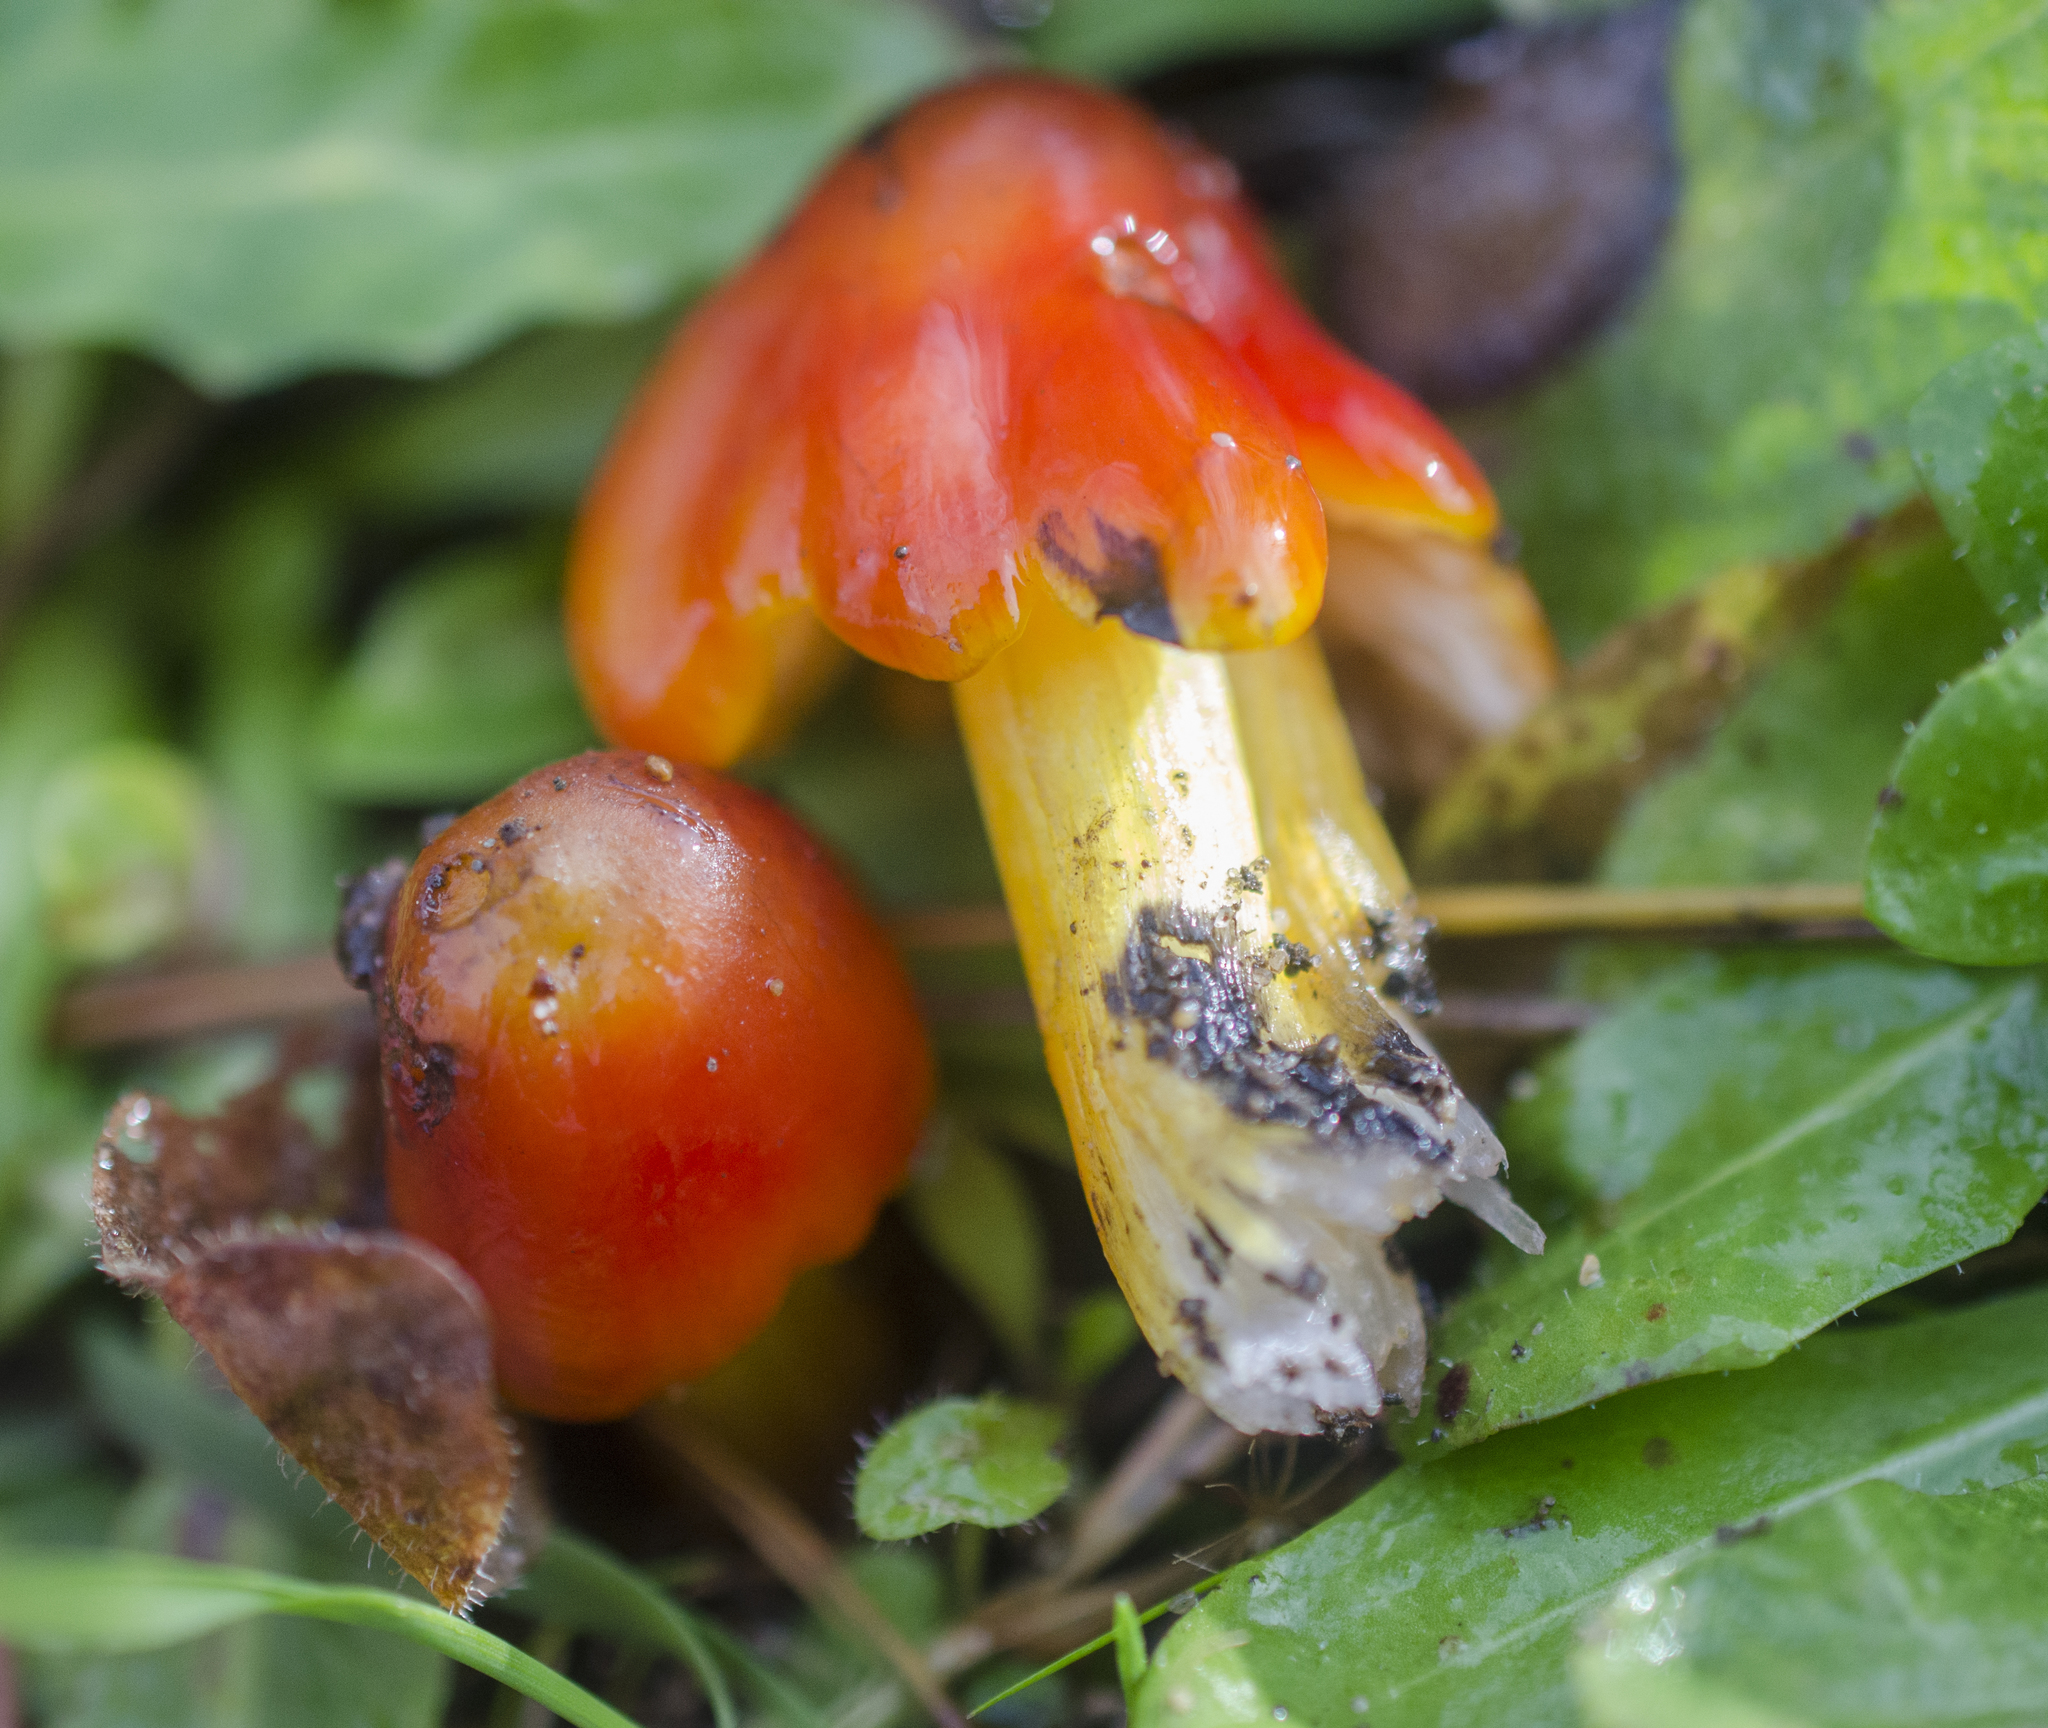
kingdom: Fungi
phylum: Basidiomycota
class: Agaricomycetes
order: Agaricales
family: Hygrophoraceae
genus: Hygrocybe
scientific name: Hygrocybe singeri
